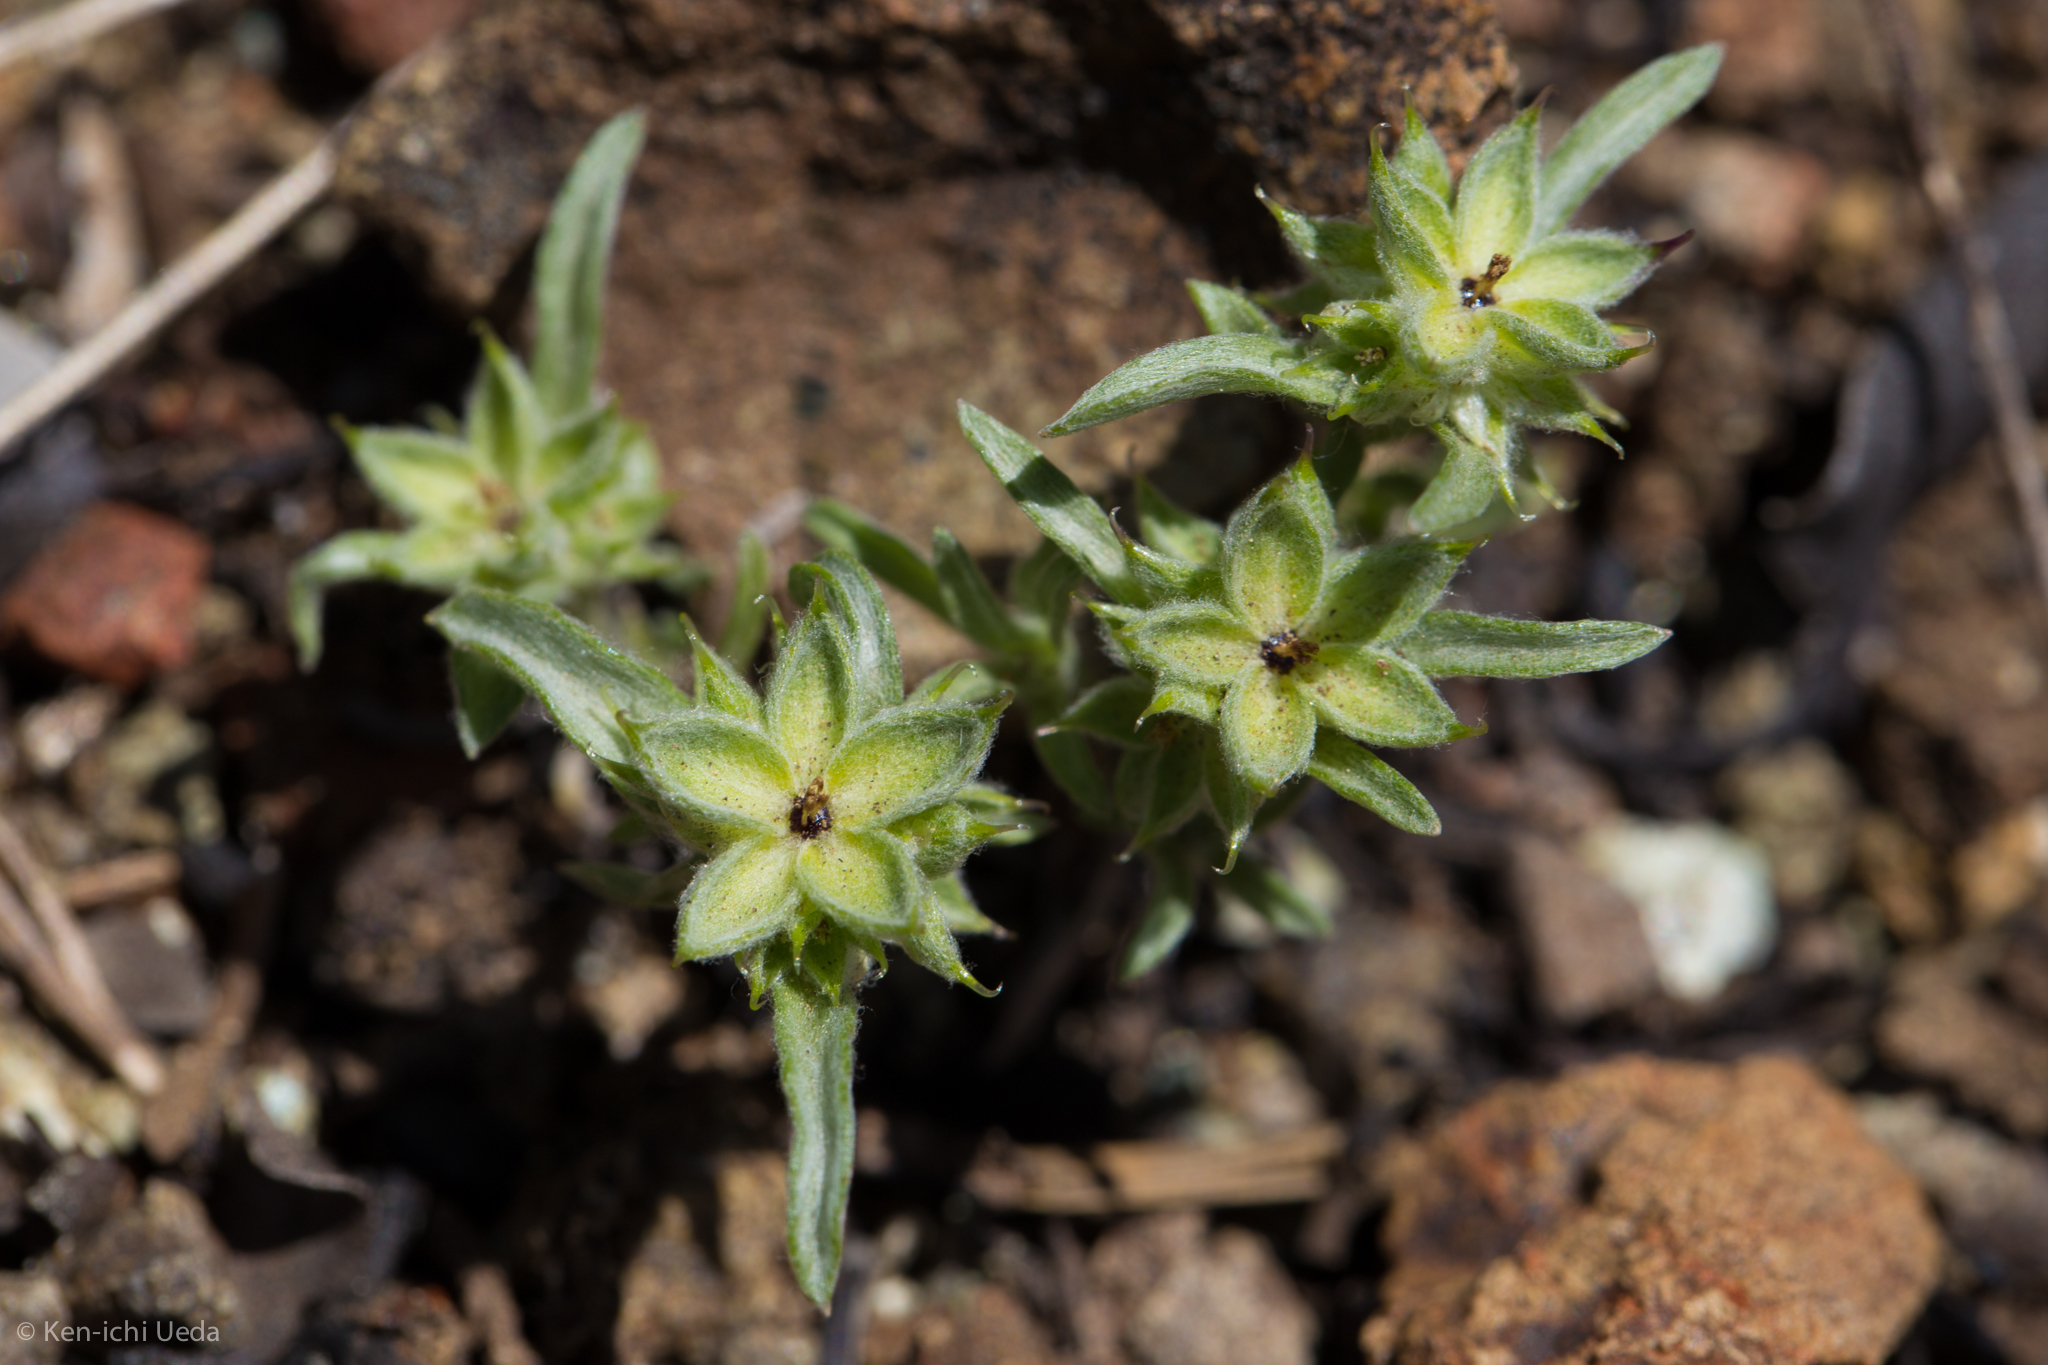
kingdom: Plantae
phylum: Tracheophyta
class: Magnoliopsida
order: Asterales
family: Asteraceae
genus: Ancistrocarphus
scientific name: Ancistrocarphus filagineus
